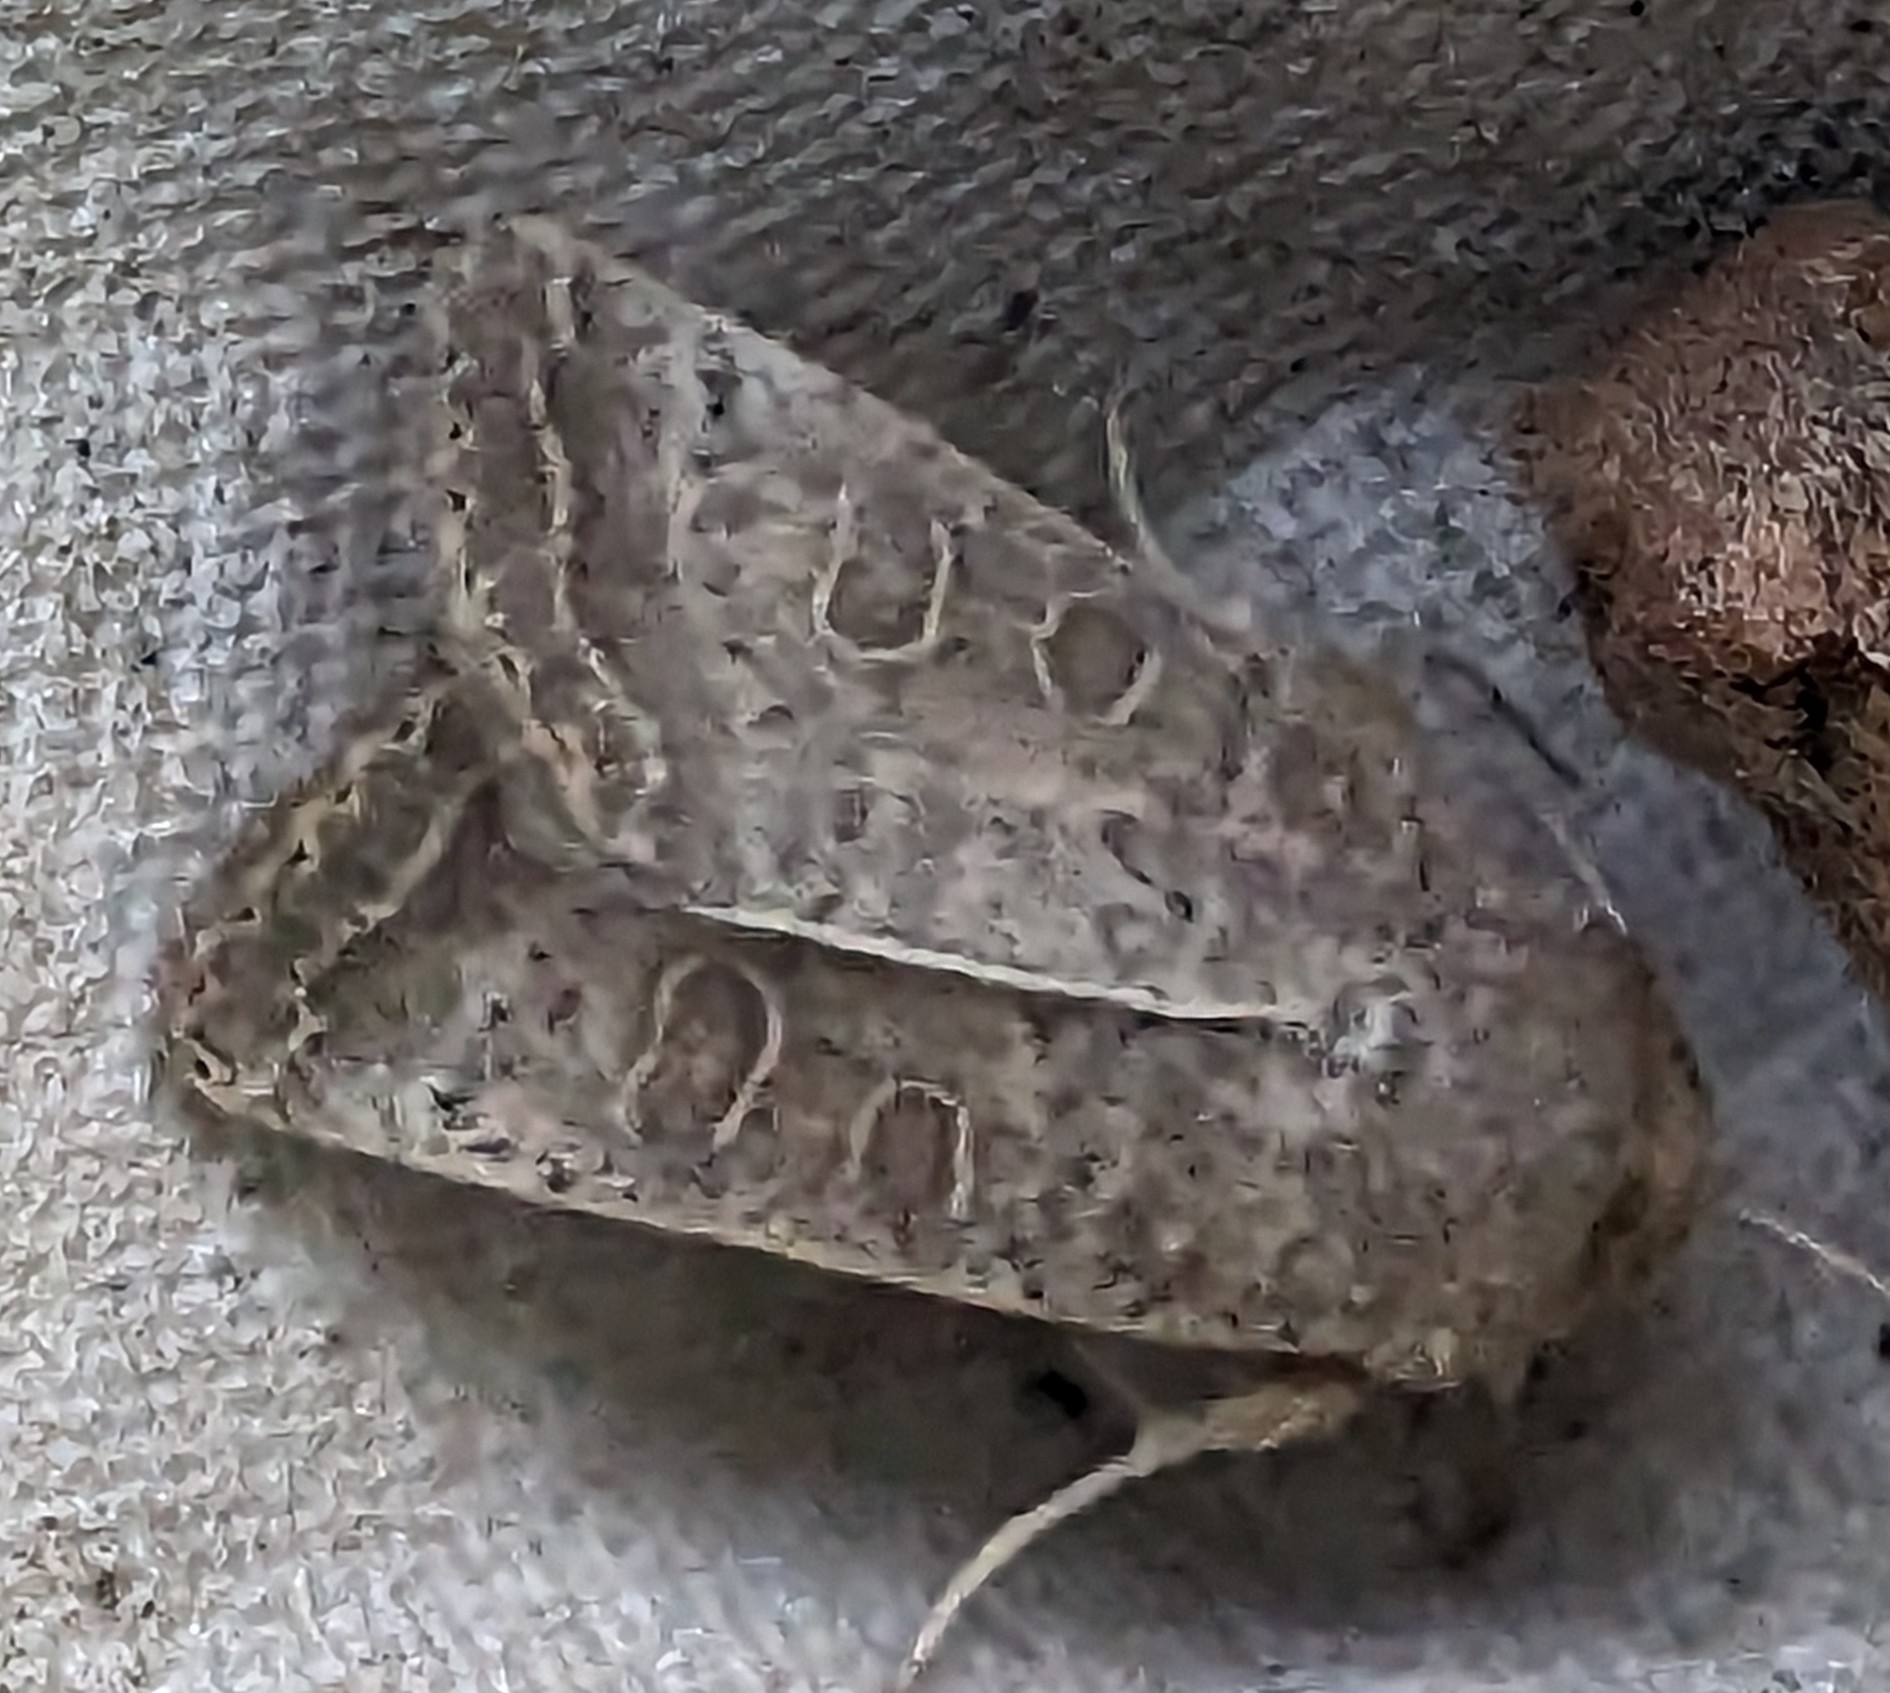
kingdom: Animalia
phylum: Arthropoda
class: Insecta
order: Lepidoptera
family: Noctuidae
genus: Hoplodrina
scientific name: Hoplodrina ambigua
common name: Vine's rustic
